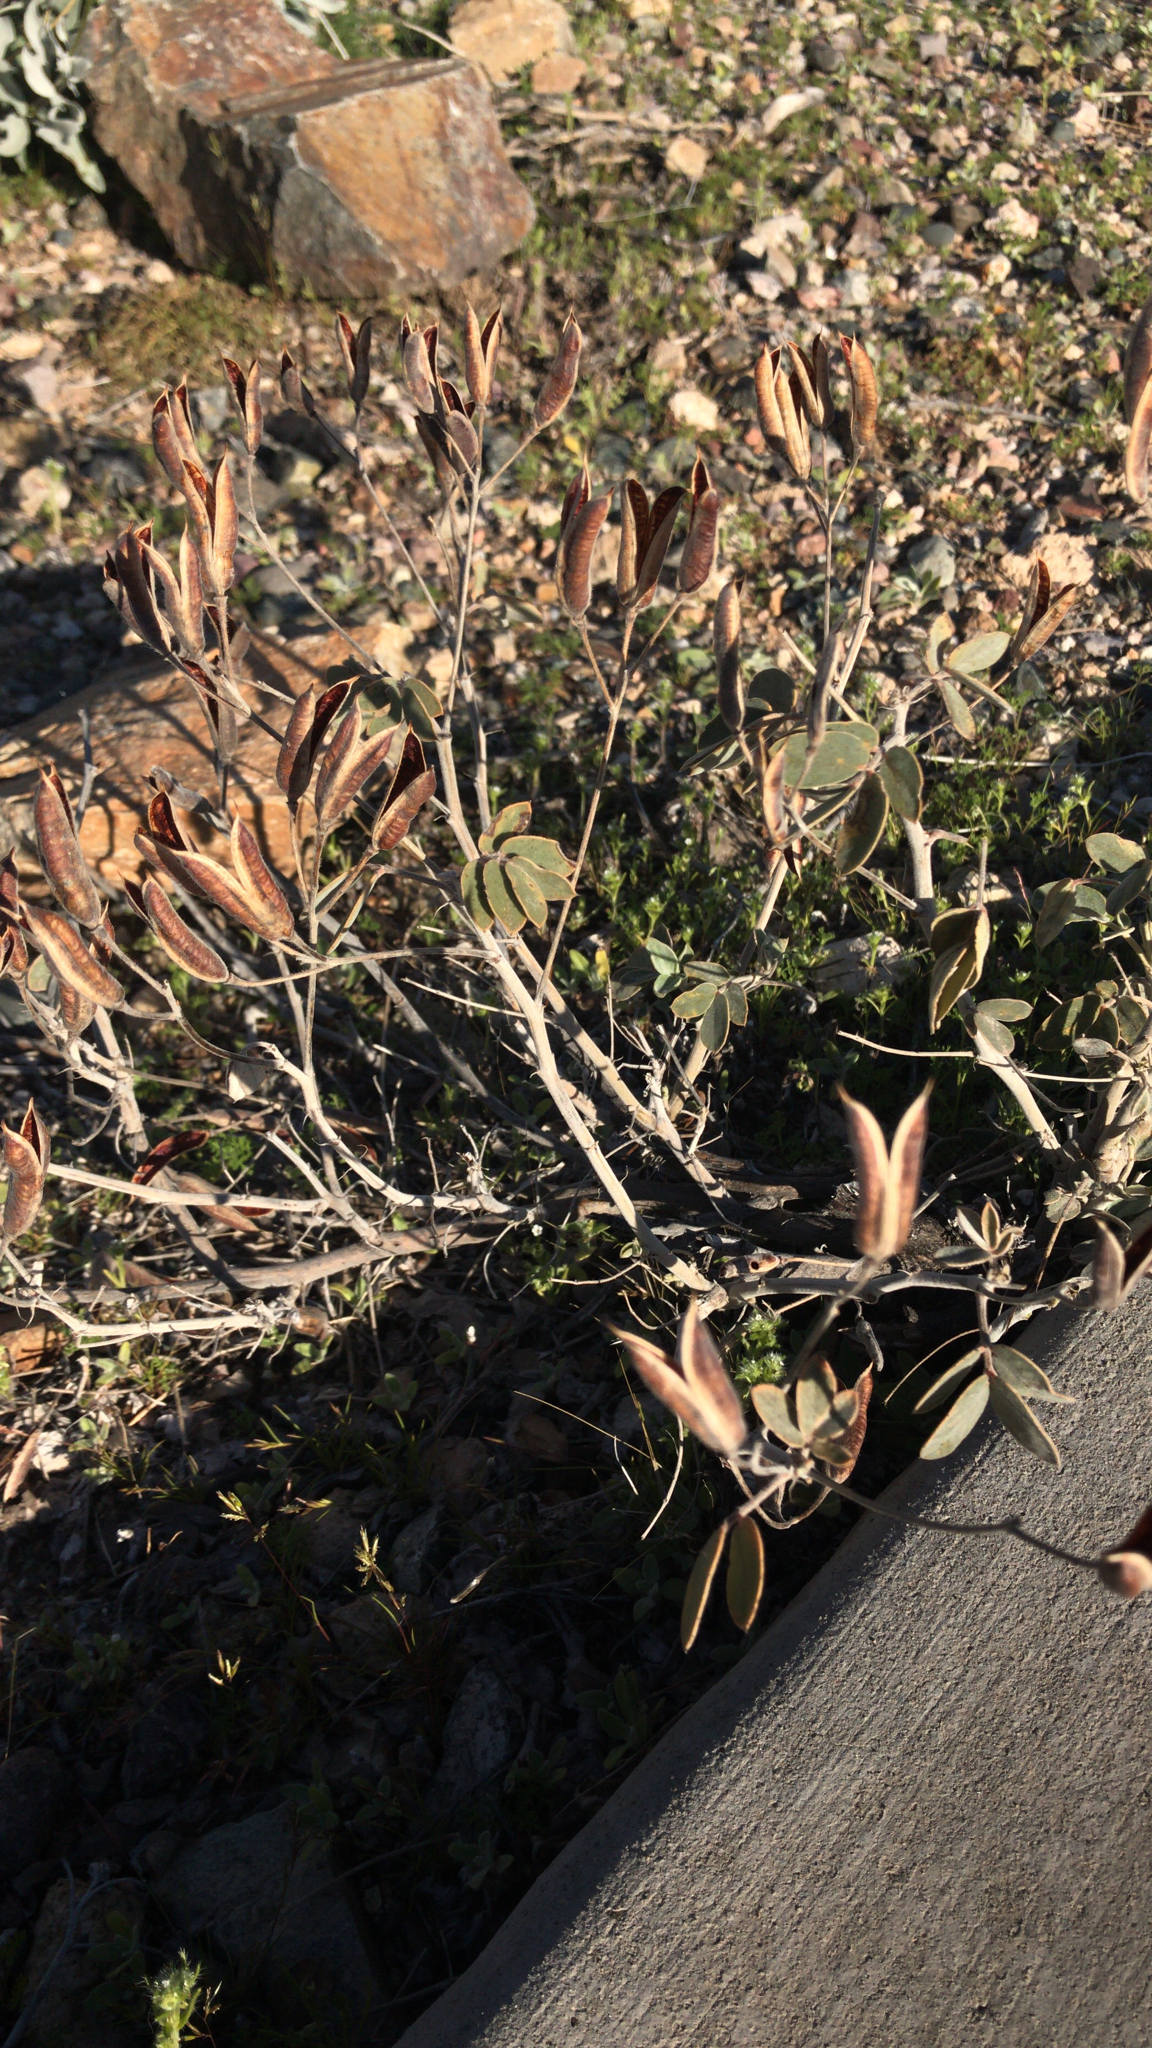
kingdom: Plantae
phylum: Tracheophyta
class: Magnoliopsida
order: Fabales
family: Fabaceae
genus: Senna
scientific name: Senna covesii
